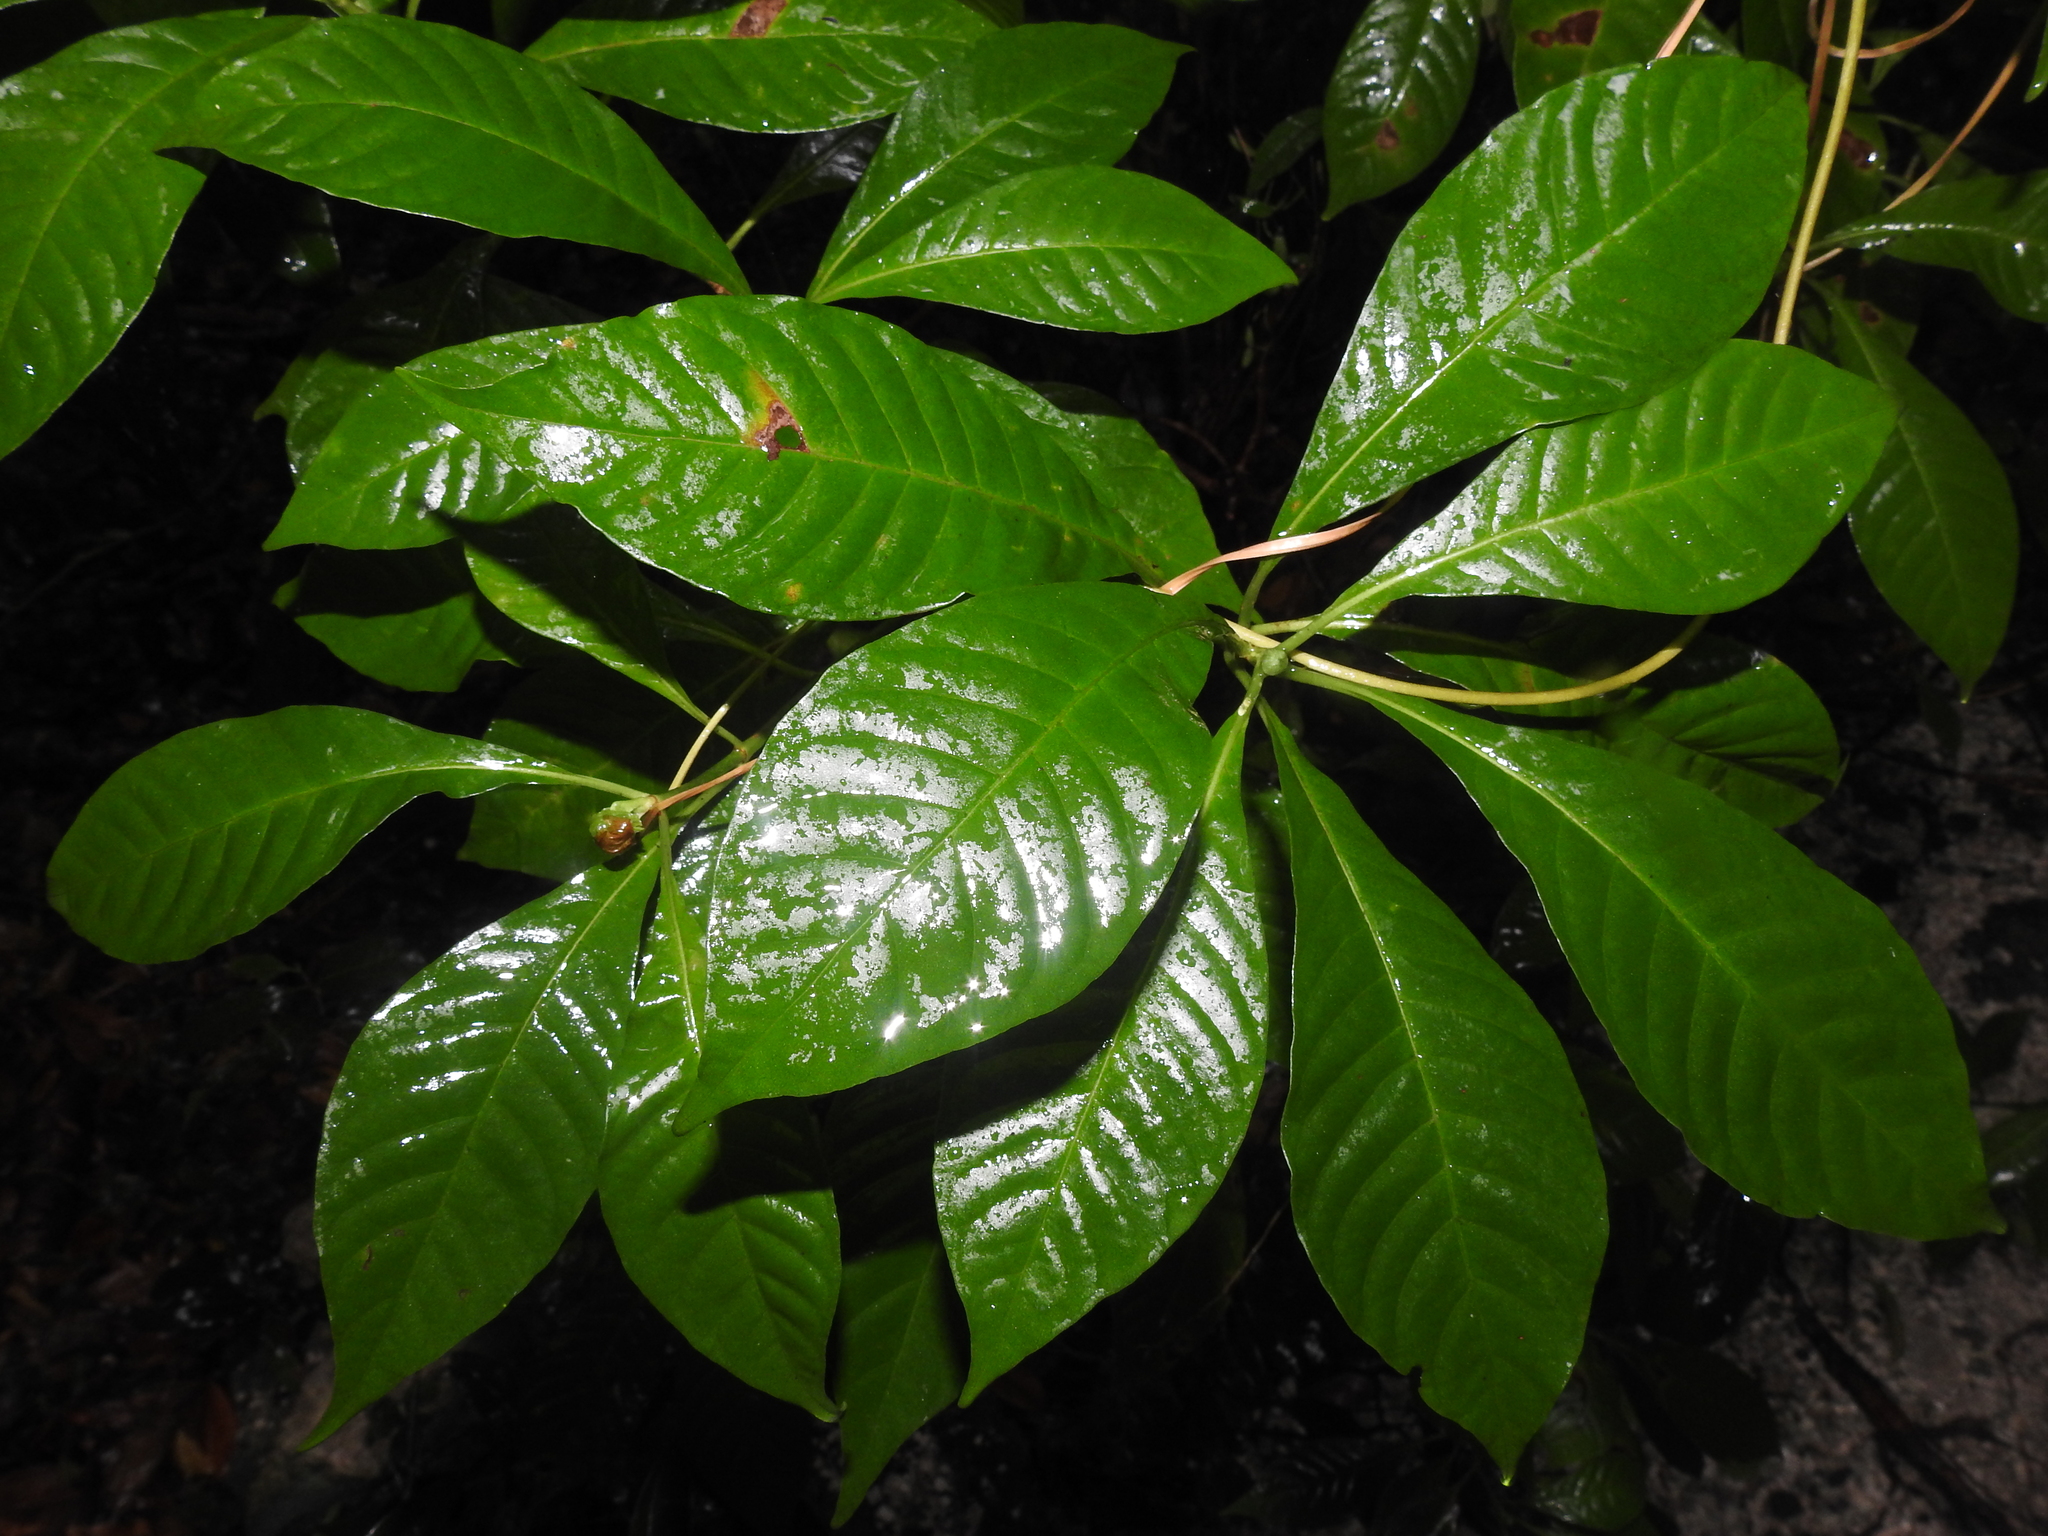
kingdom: Plantae
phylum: Tracheophyta
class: Magnoliopsida
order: Gentianales
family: Rubiaceae
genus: Psychotria
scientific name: Psychotria nervosa
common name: Bastard cankerberry
